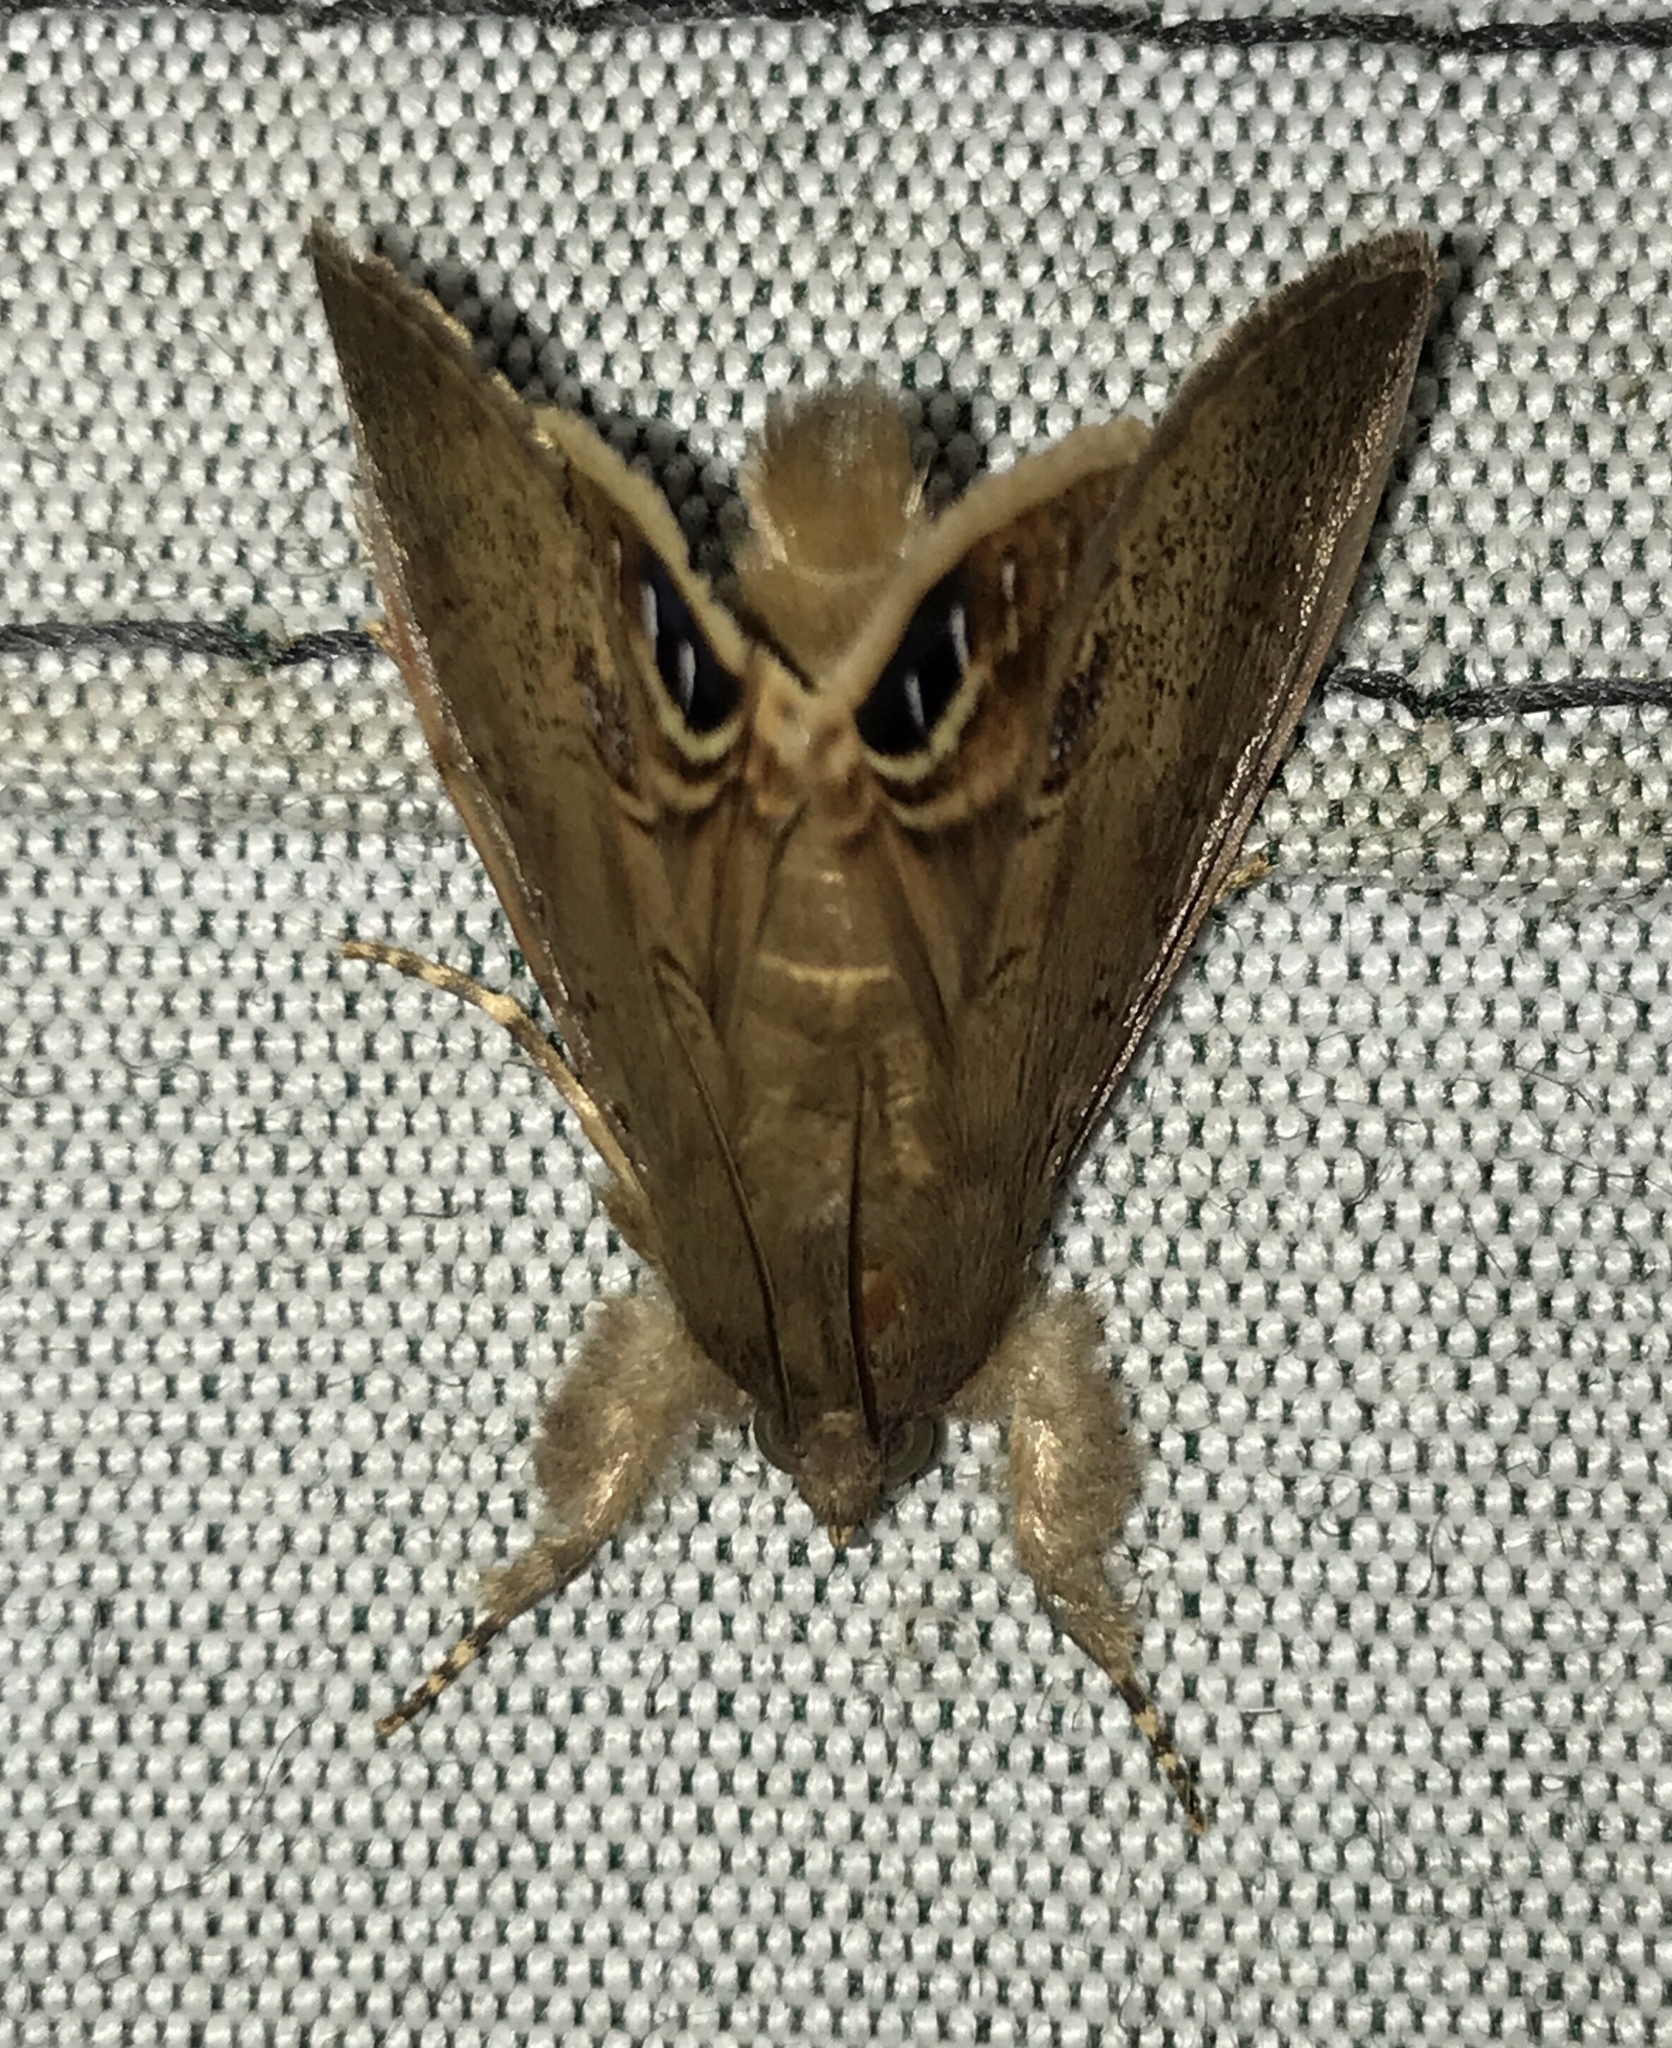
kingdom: Animalia
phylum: Arthropoda
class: Insecta
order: Lepidoptera
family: Erebidae
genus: Litoprosopus
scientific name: Litoprosopus futilis
